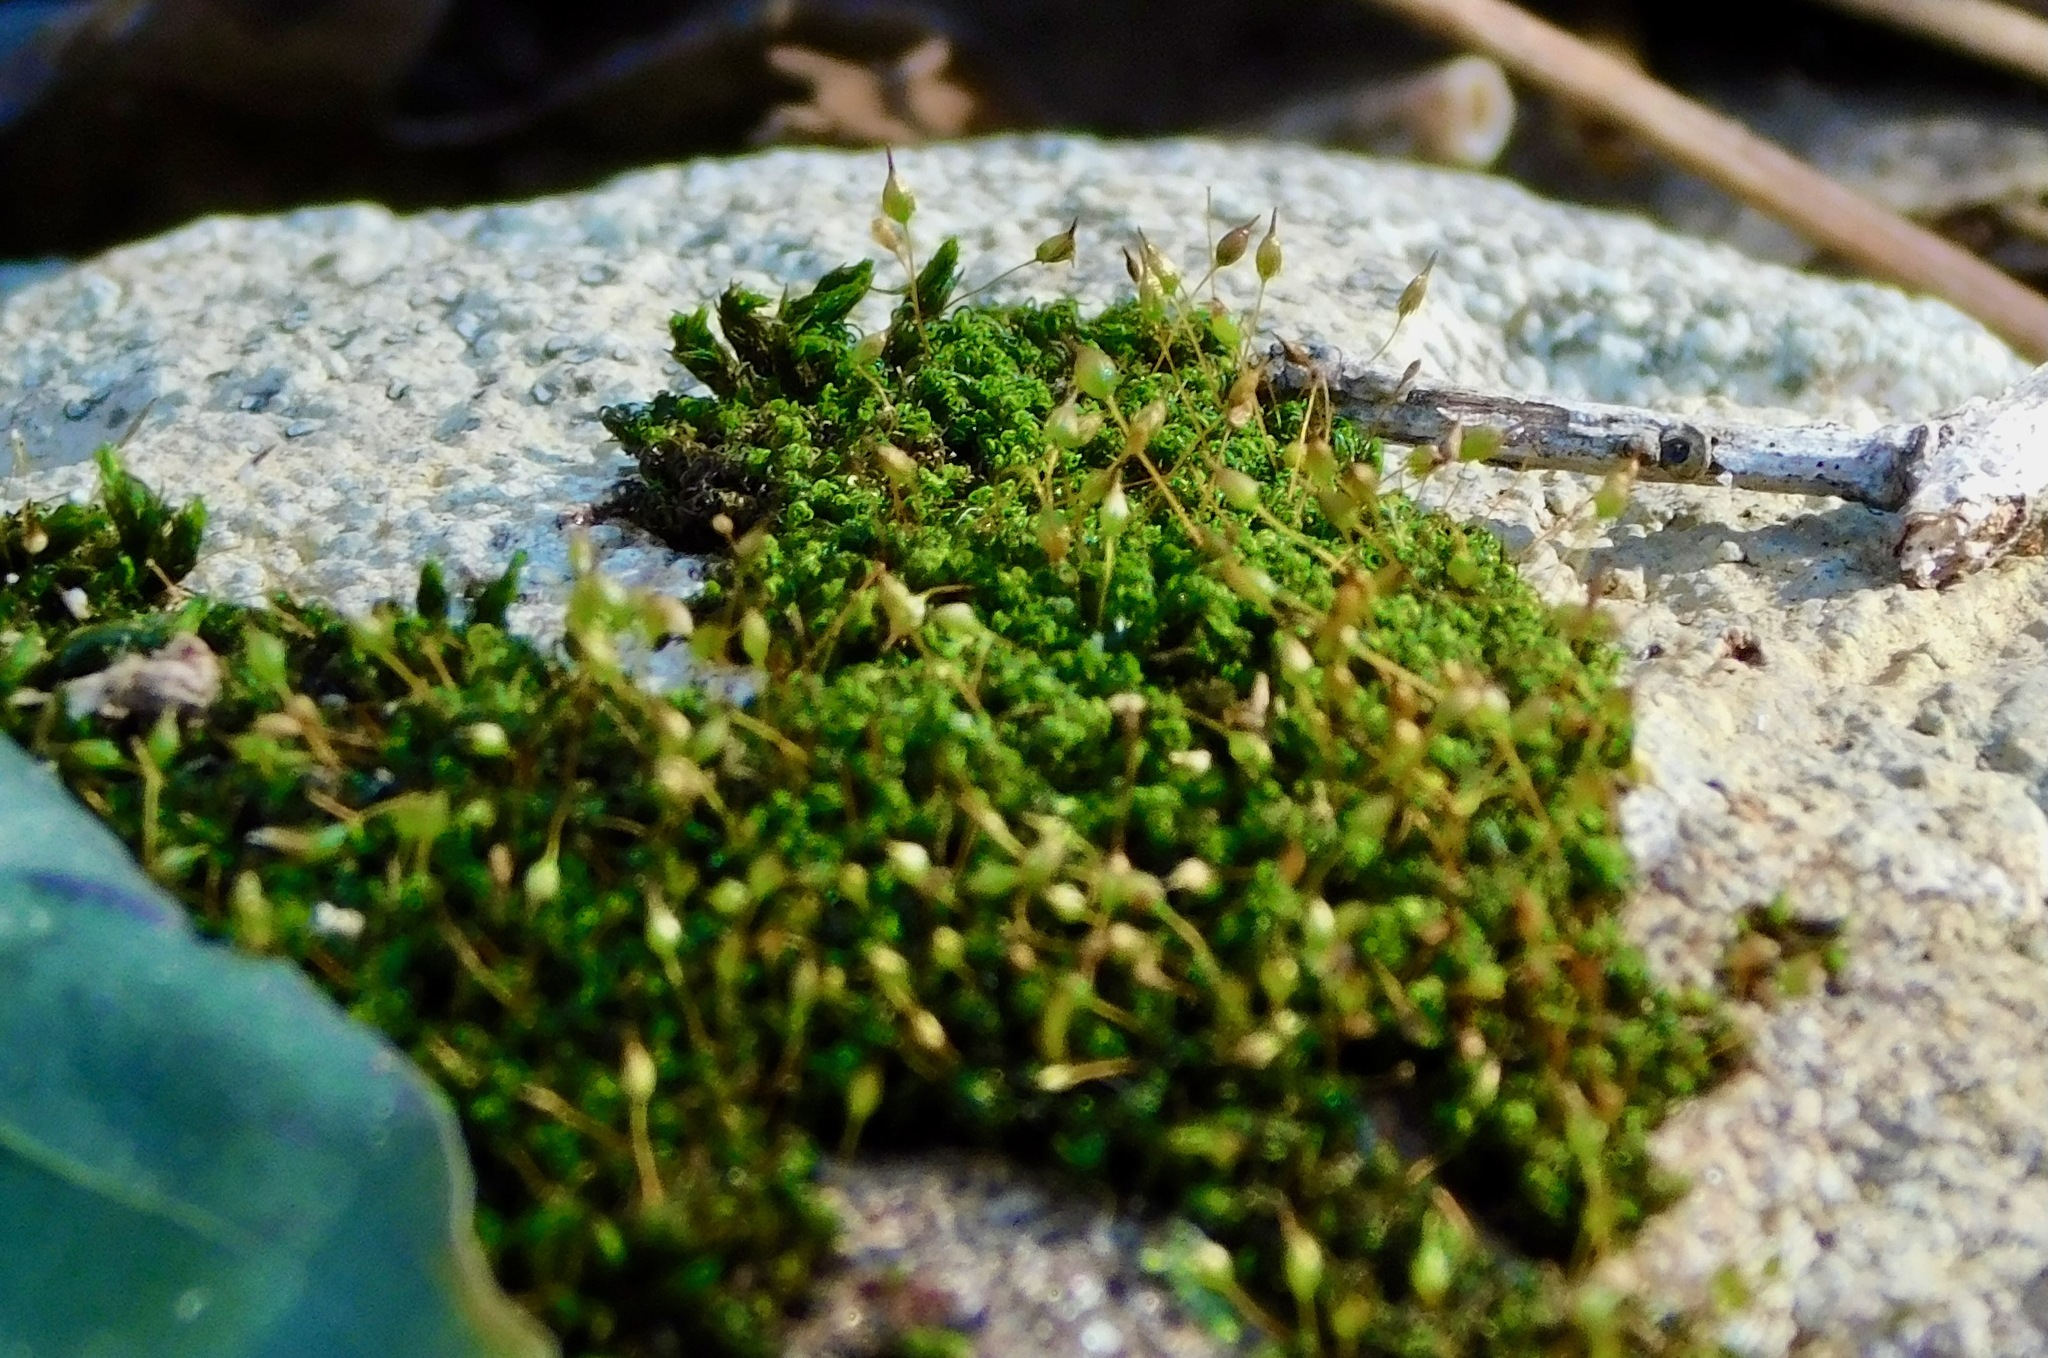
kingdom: Plantae
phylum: Bryophyta
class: Bryopsida
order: Grimmiales
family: Ptychomitriaceae
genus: Ptychomitrium
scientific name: Ptychomitrium incurvum
